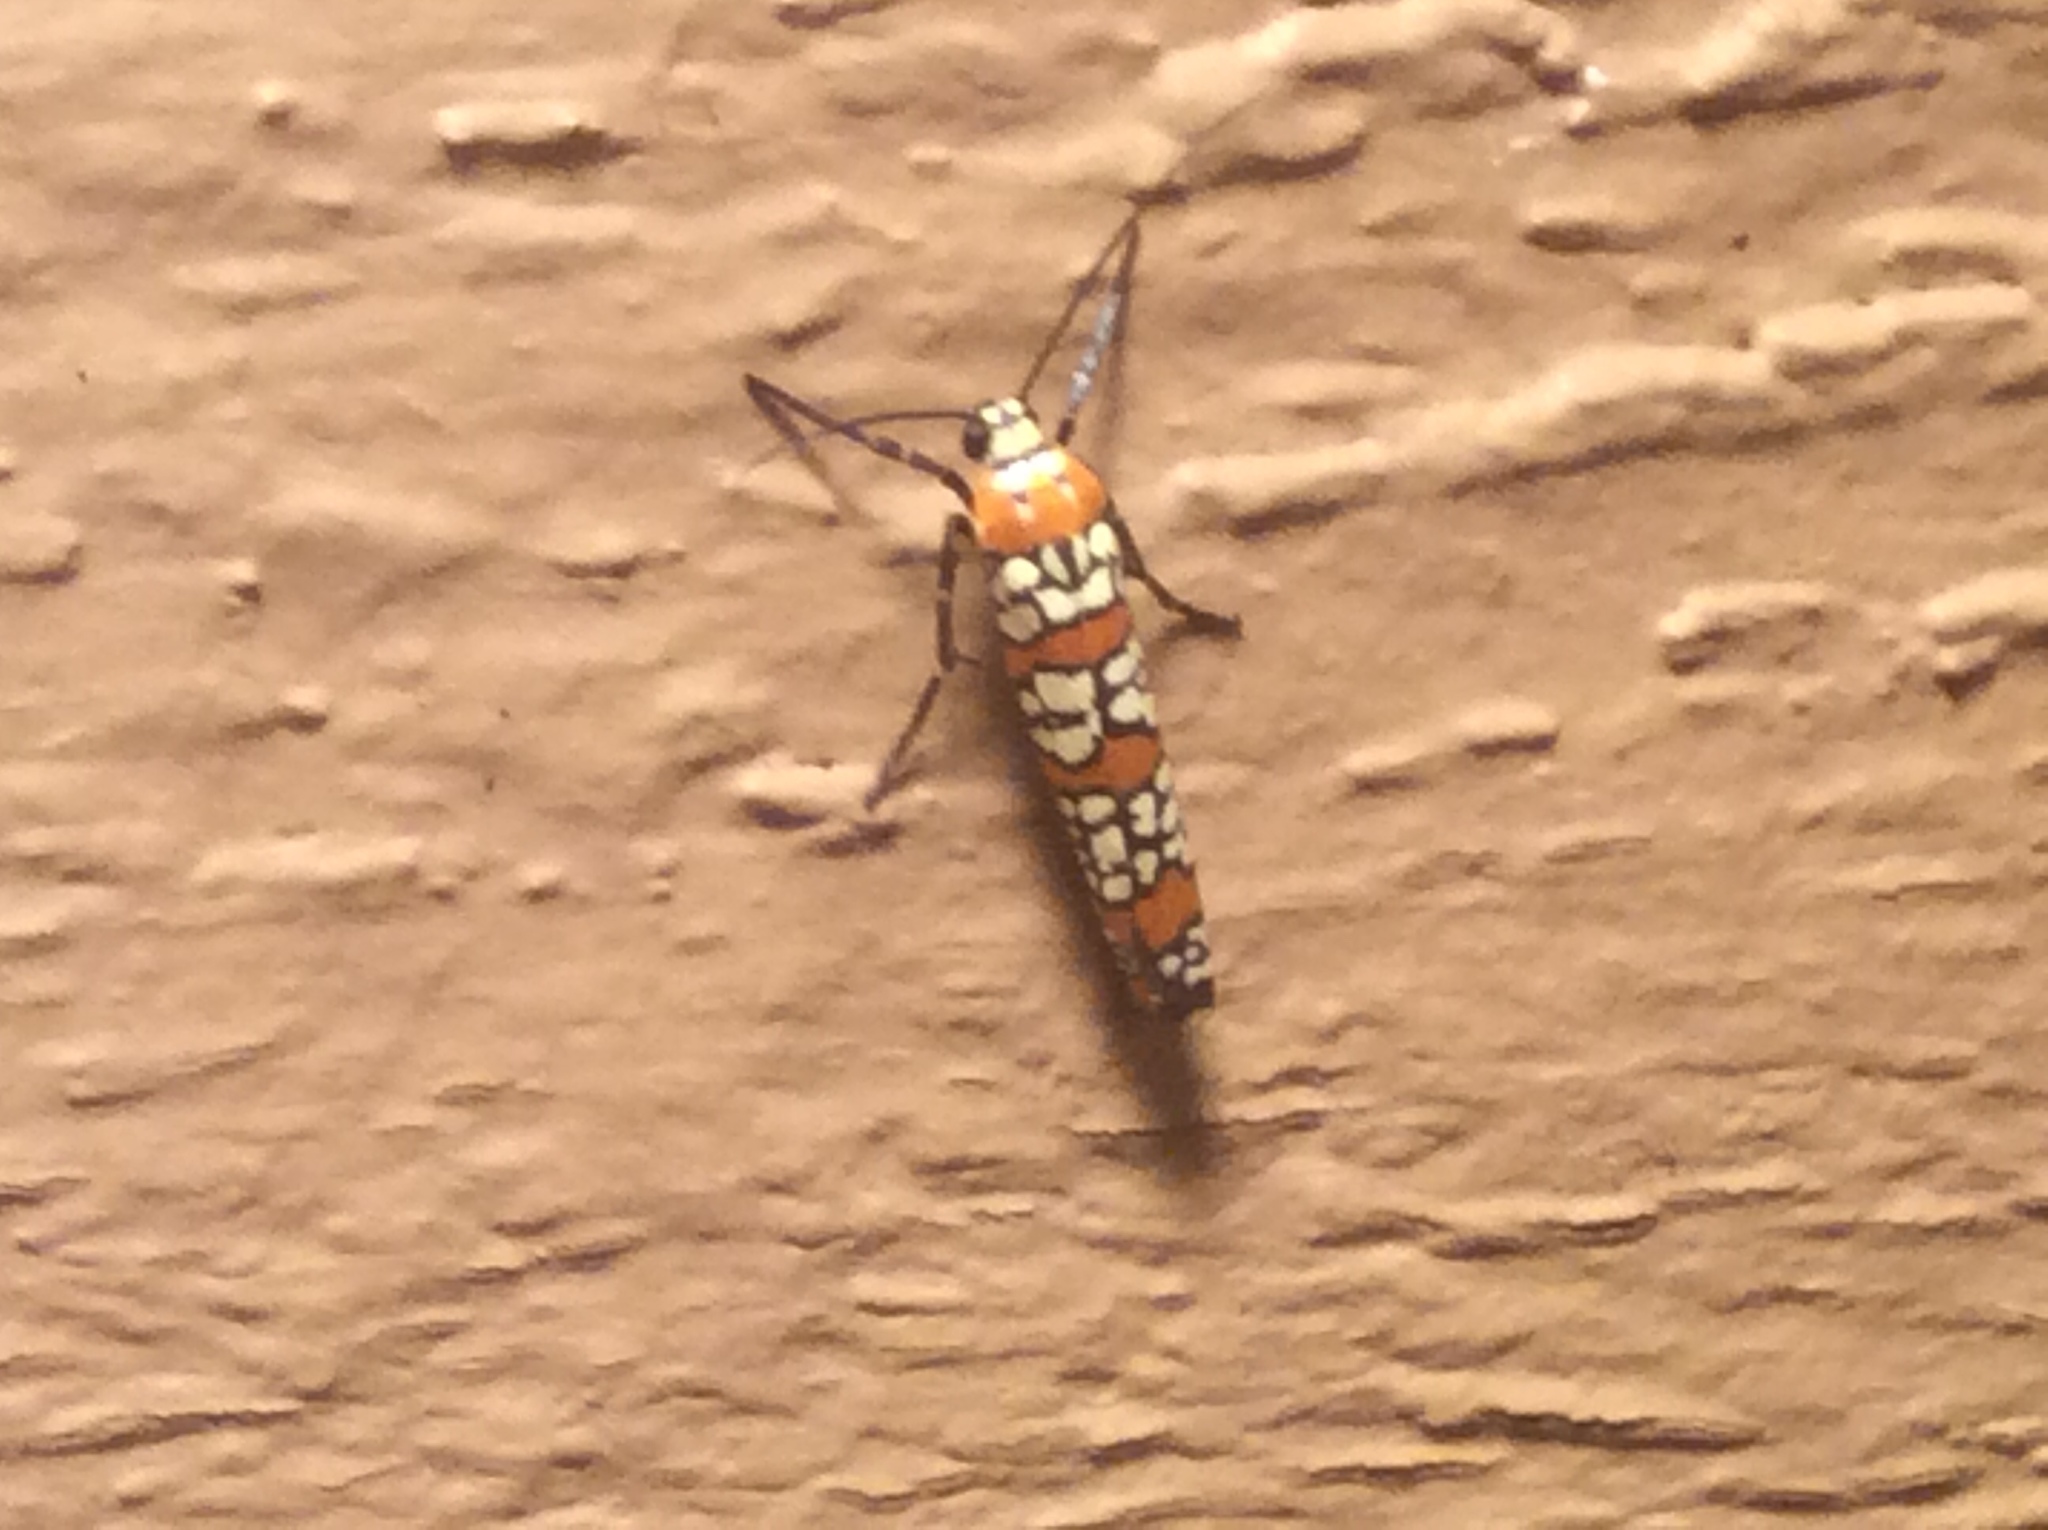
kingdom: Animalia
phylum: Arthropoda
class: Insecta
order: Lepidoptera
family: Attevidae
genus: Atteva
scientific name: Atteva punctella
